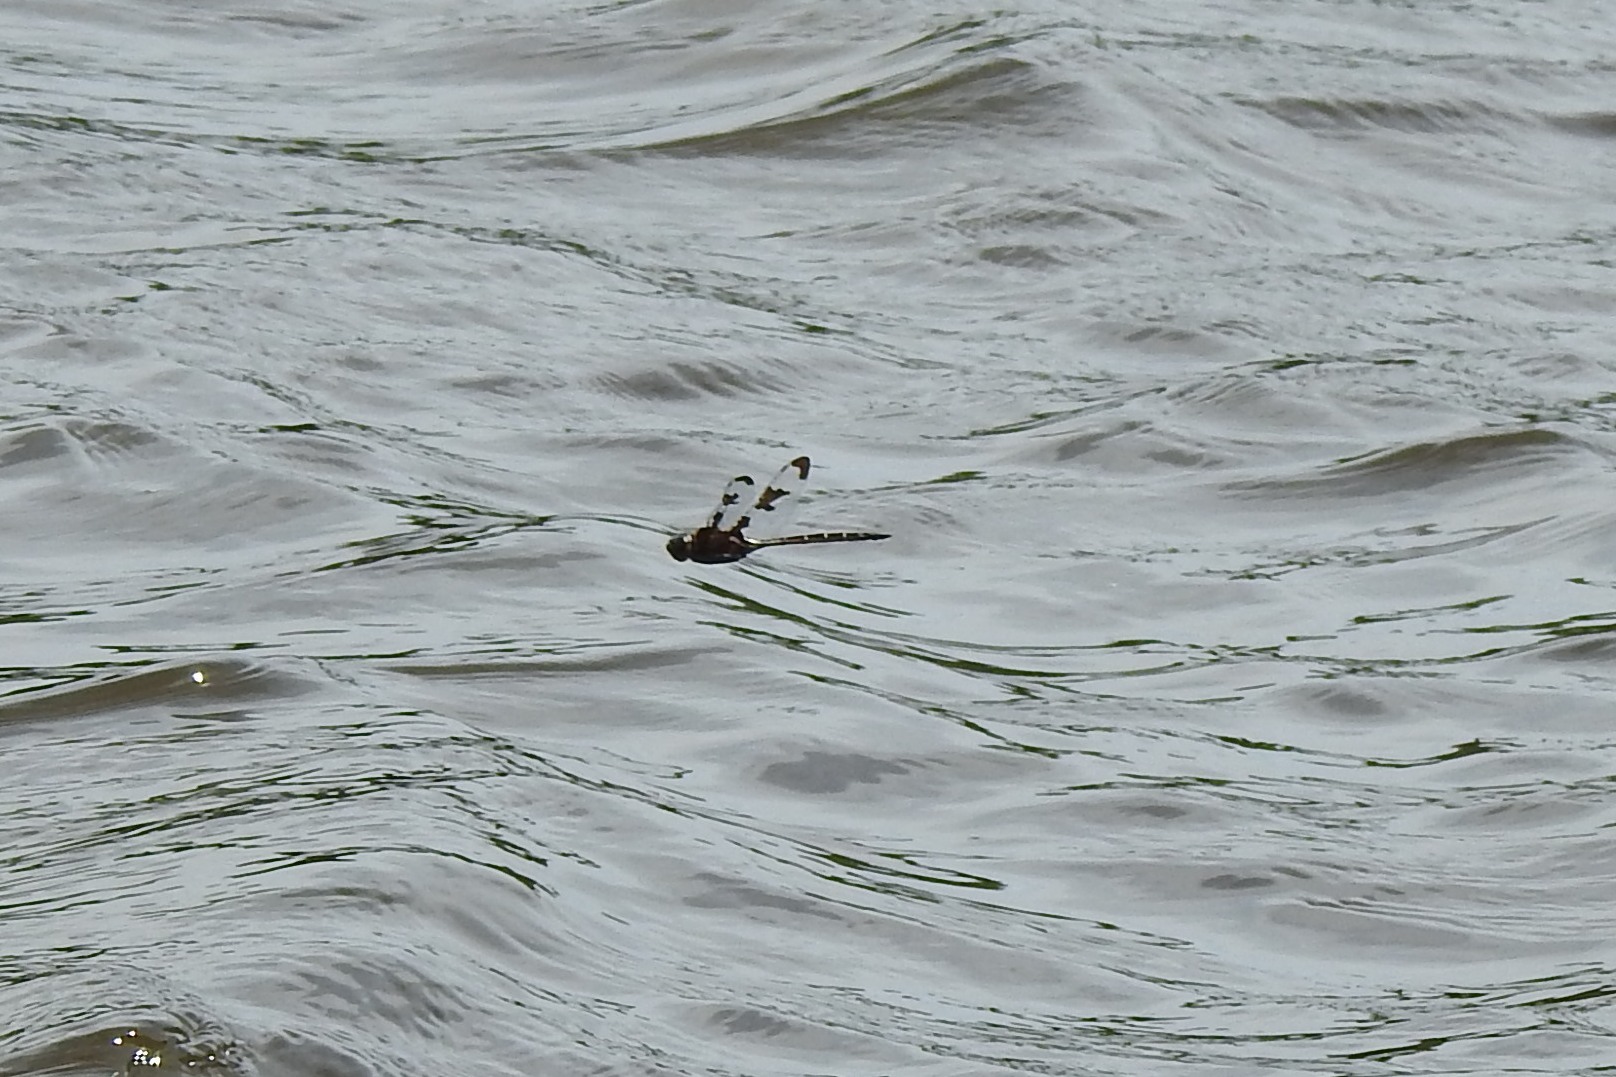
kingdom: Animalia
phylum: Arthropoda
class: Insecta
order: Odonata
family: Corduliidae
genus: Epitheca
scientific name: Epitheca princeps
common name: Prince baskettail
